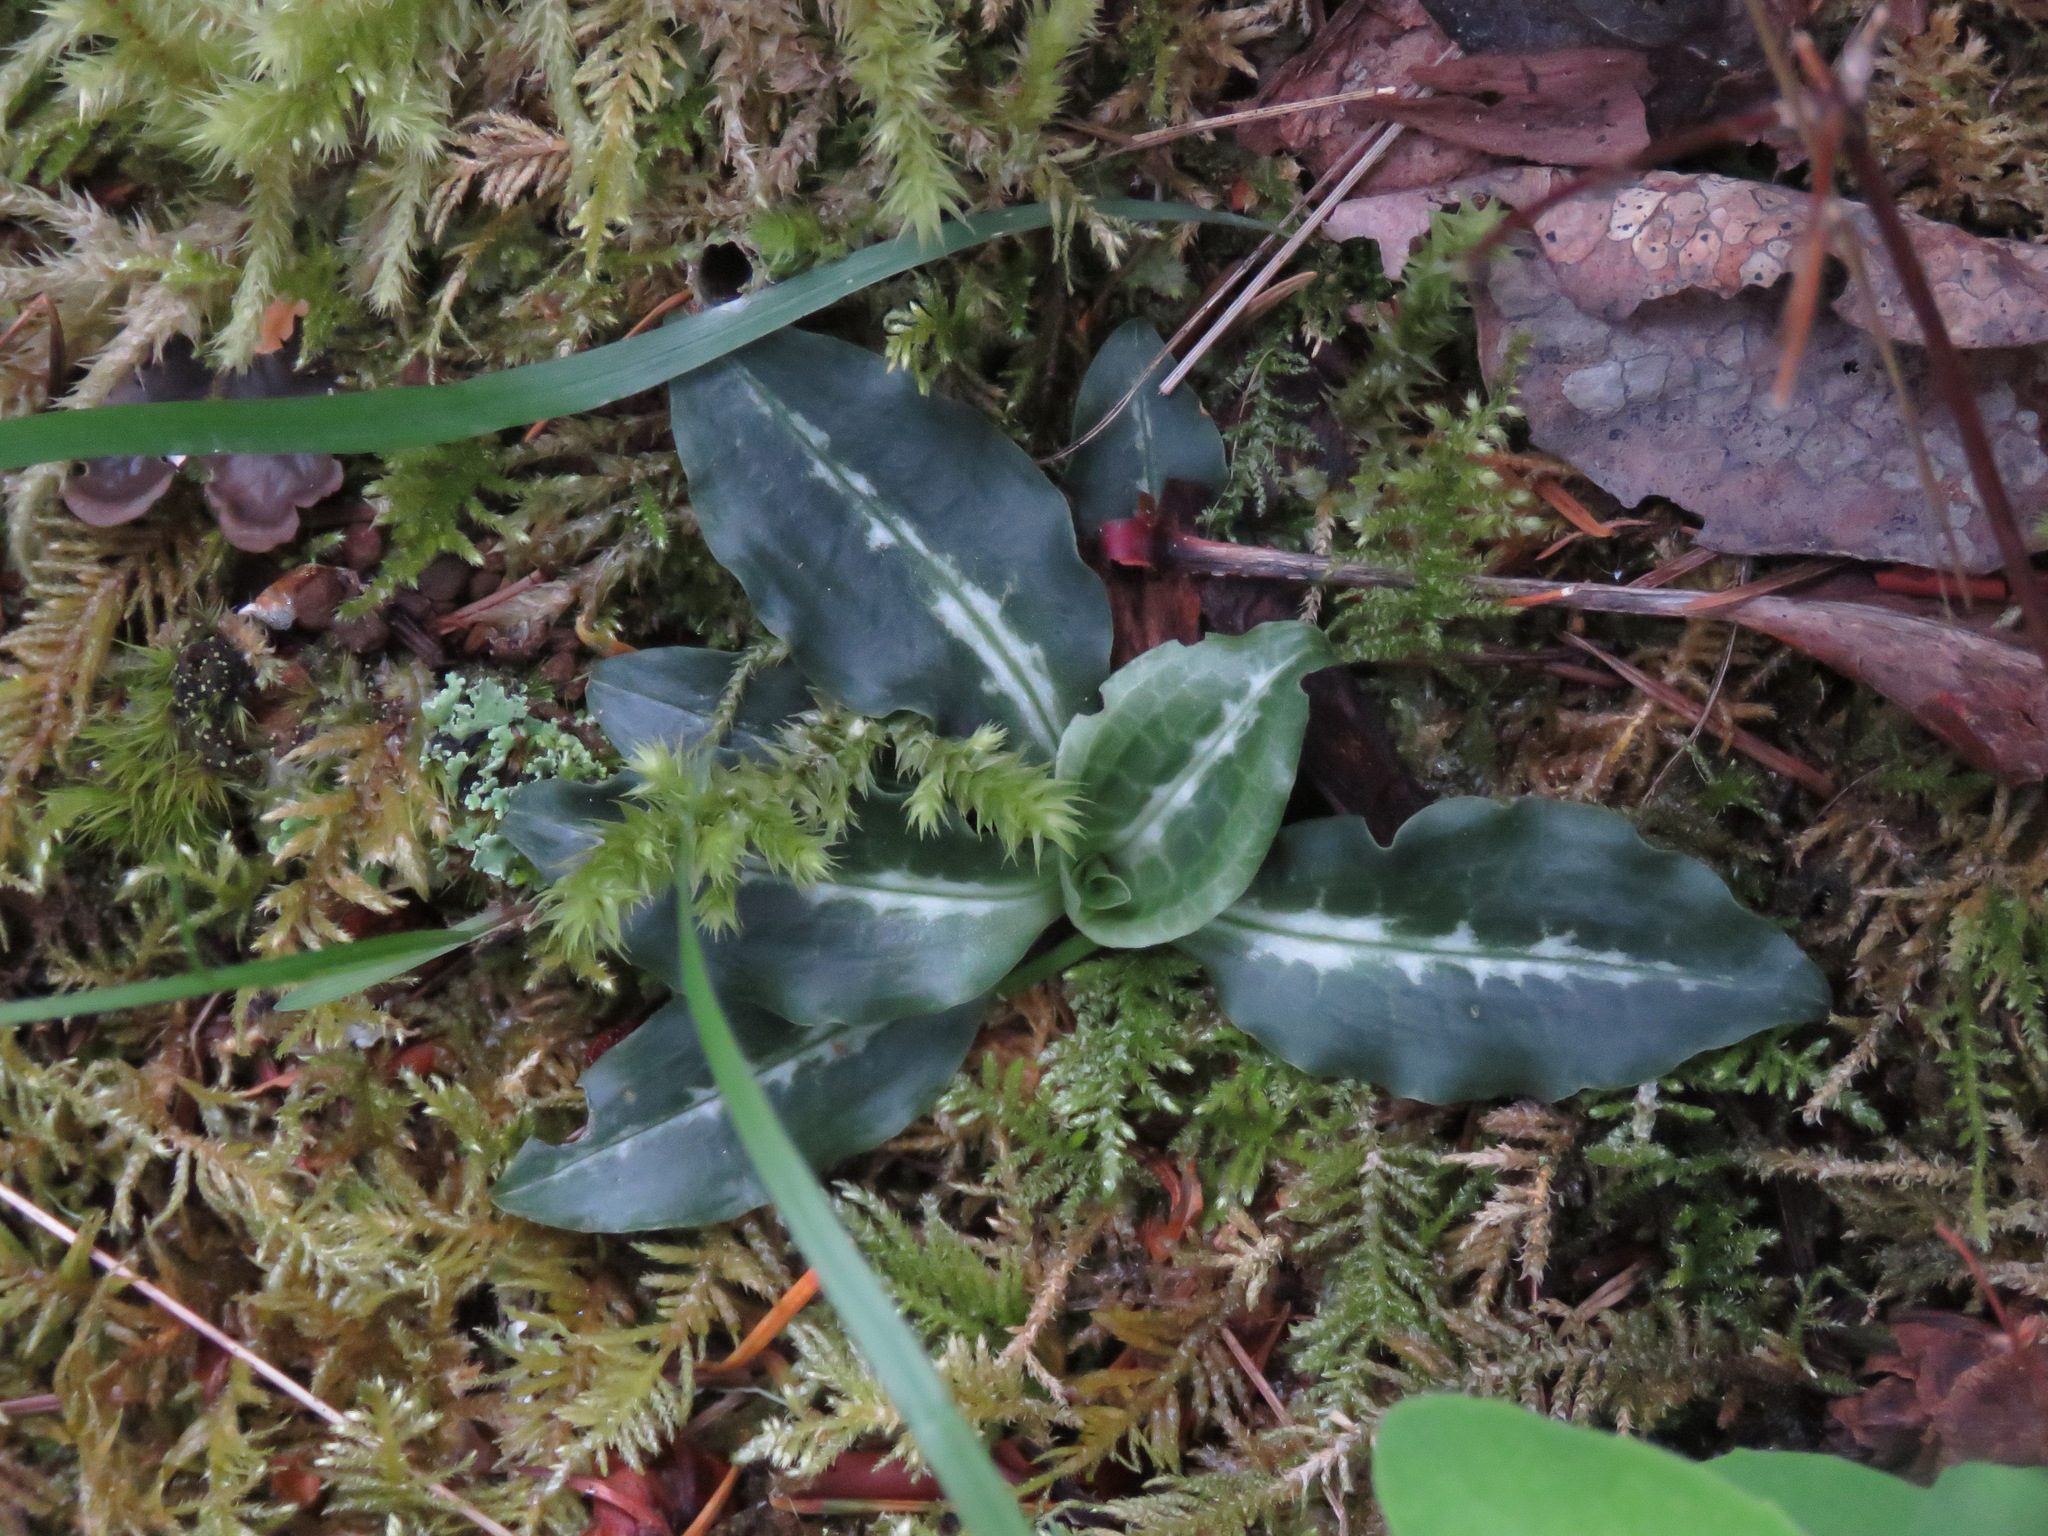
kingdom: Plantae
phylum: Tracheophyta
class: Liliopsida
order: Asparagales
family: Orchidaceae
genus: Goodyera
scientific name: Goodyera oblongifolia
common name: Giant rattlesnake-plantain
